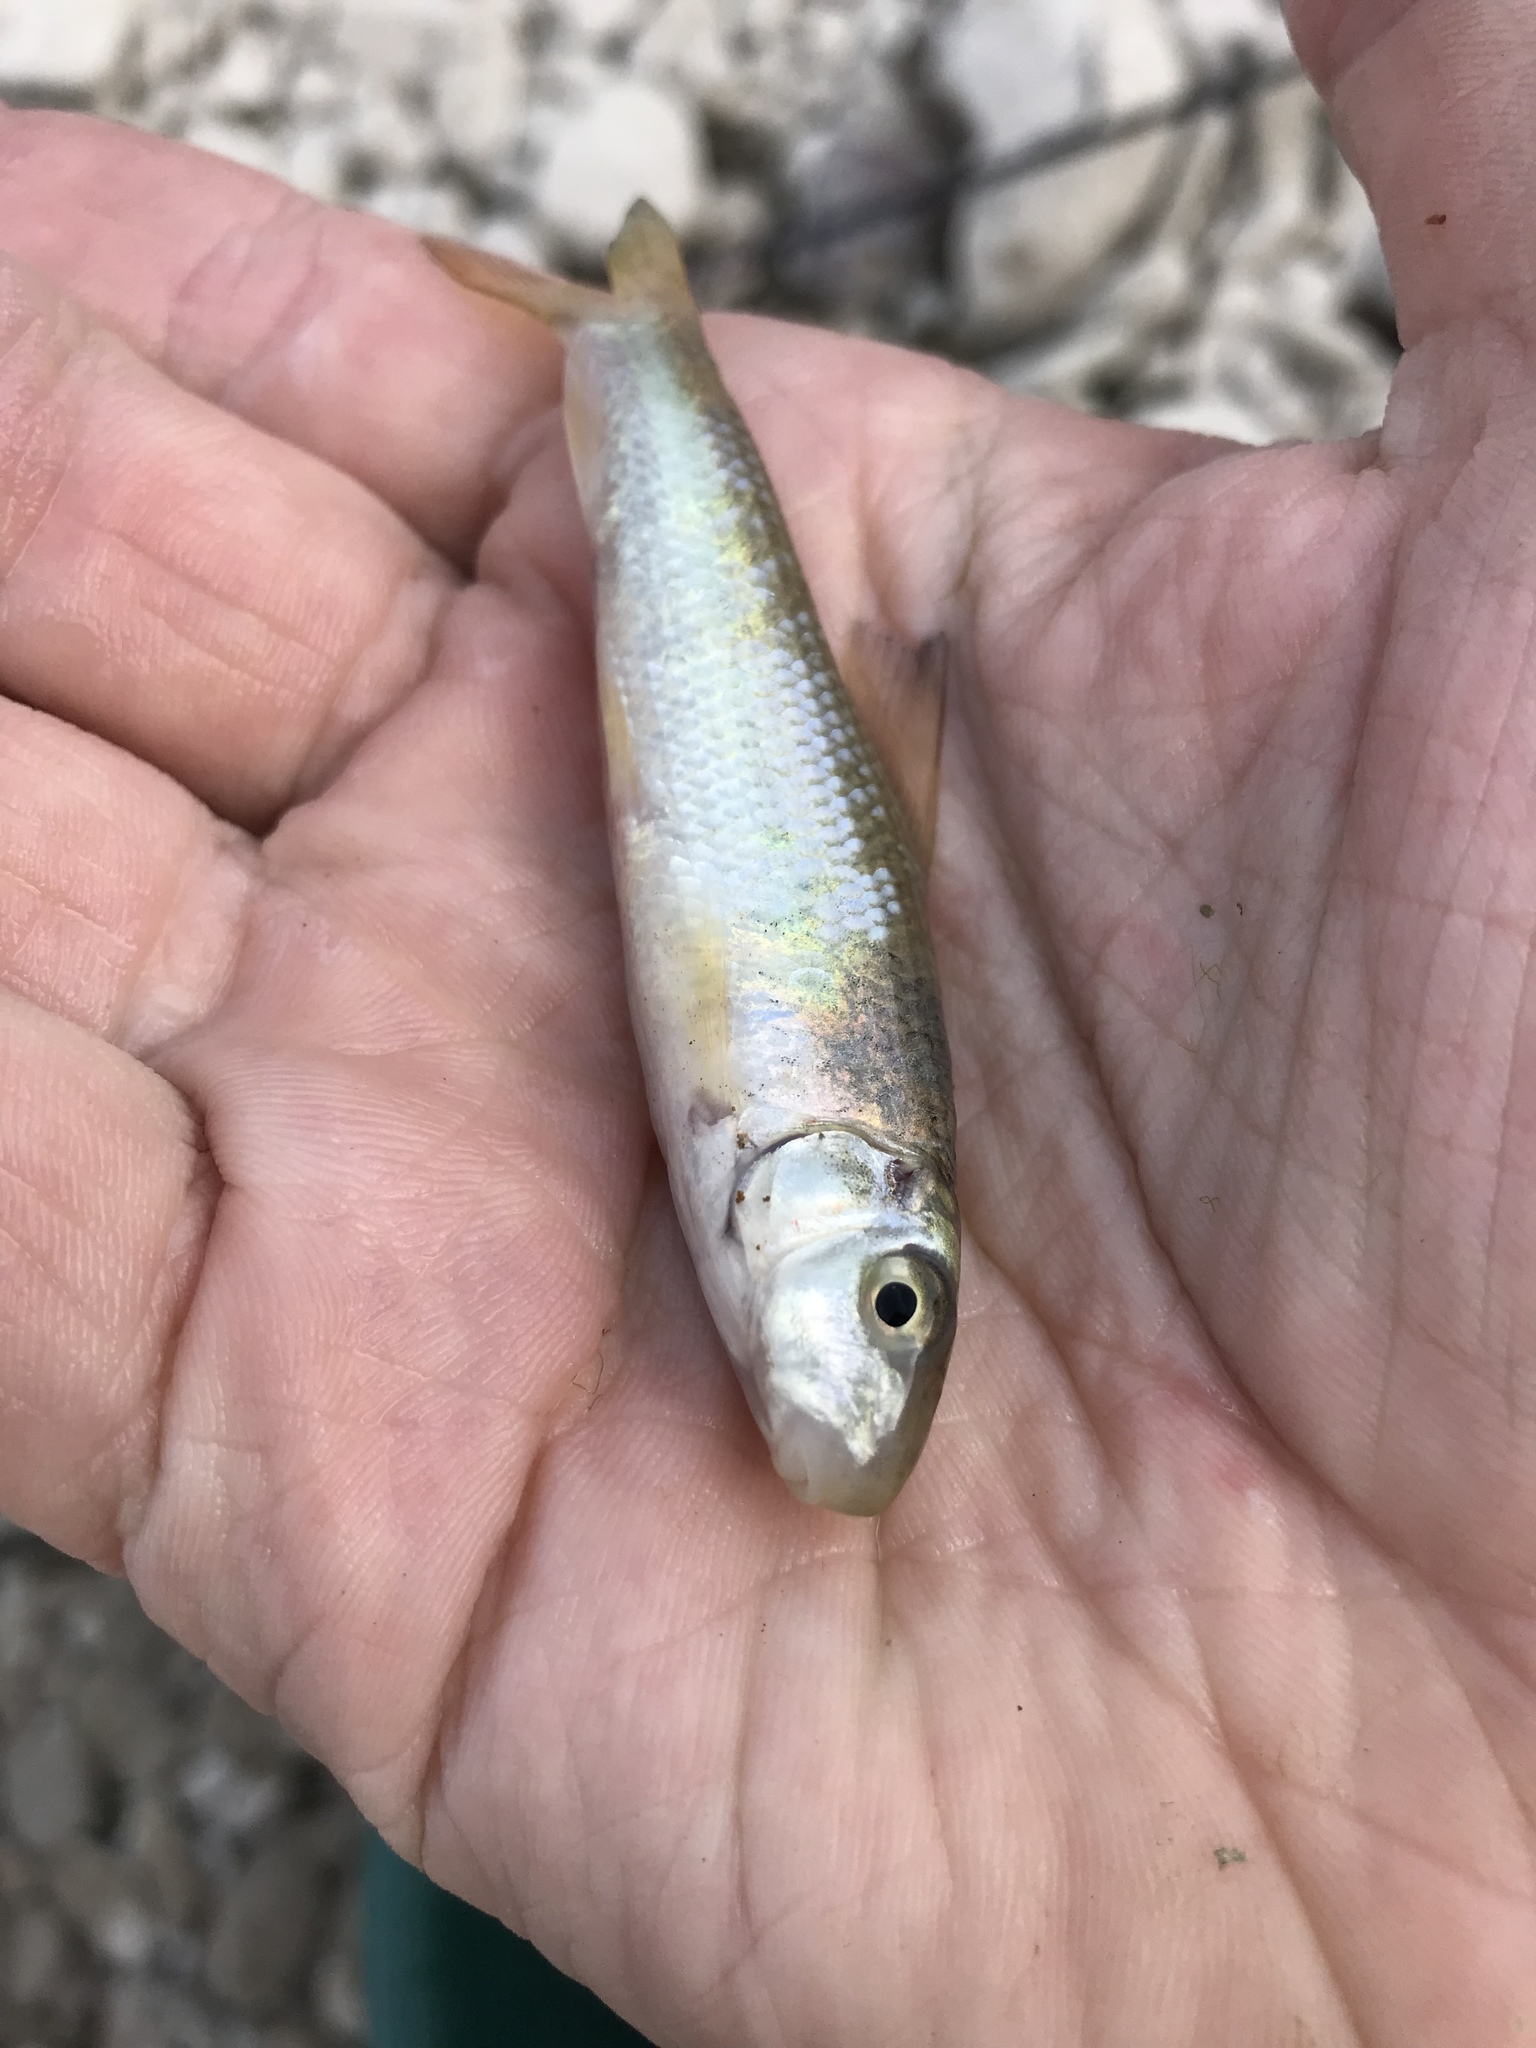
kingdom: Animalia
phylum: Chordata
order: Cypriniformes
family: Catostomidae
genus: Moxostoma
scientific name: Moxostoma congestum
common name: Gray redhorse
